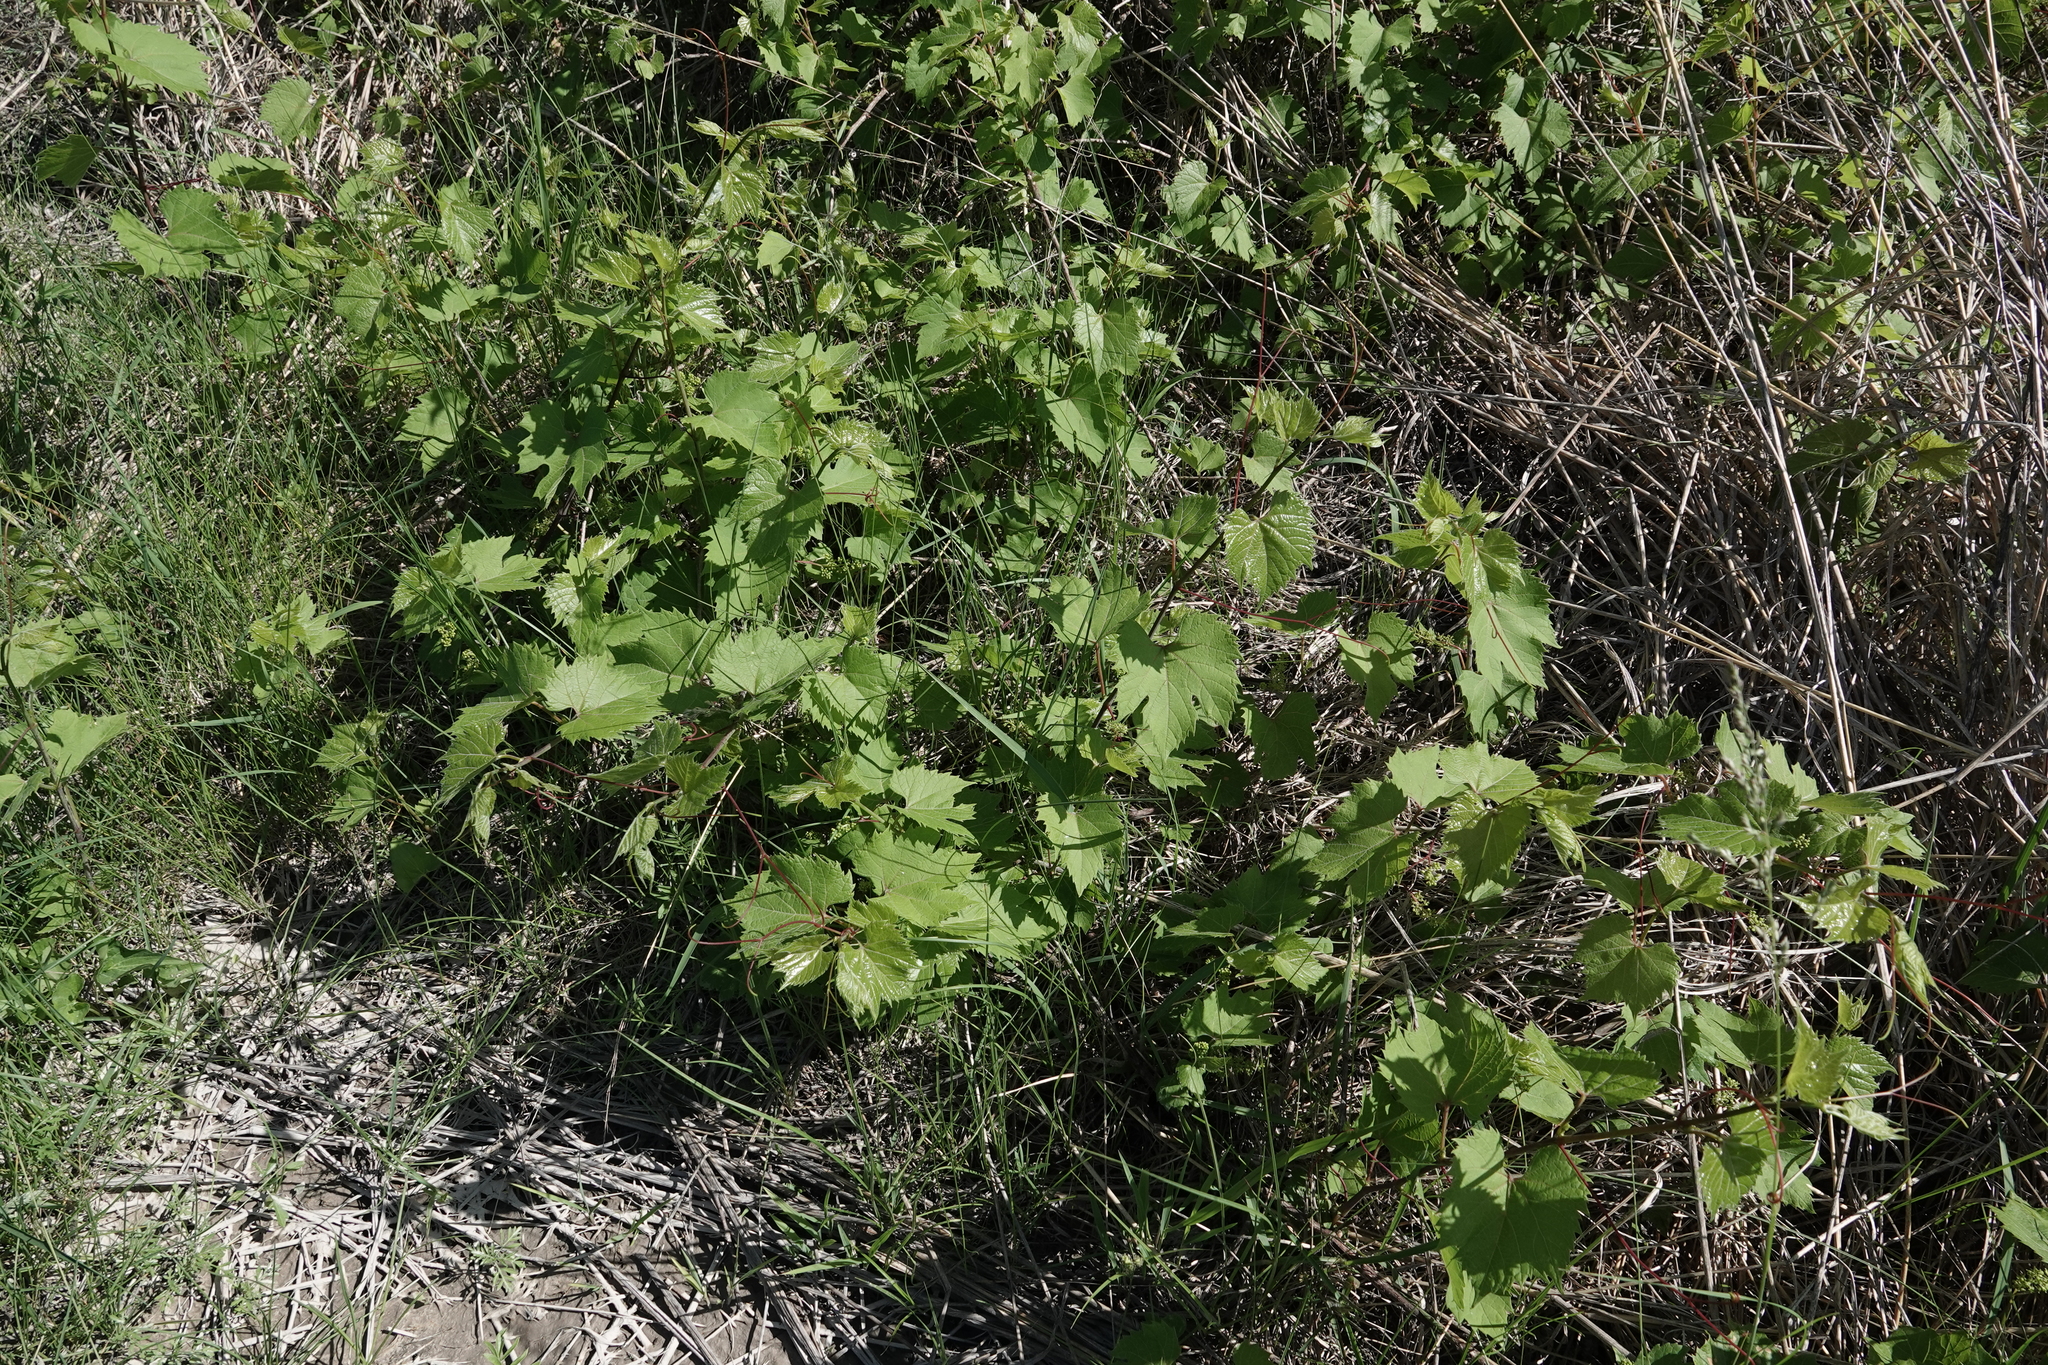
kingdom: Plantae
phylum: Tracheophyta
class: Magnoliopsida
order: Vitales
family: Vitaceae
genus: Vitis
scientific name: Vitis riparia
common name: Frost grape
